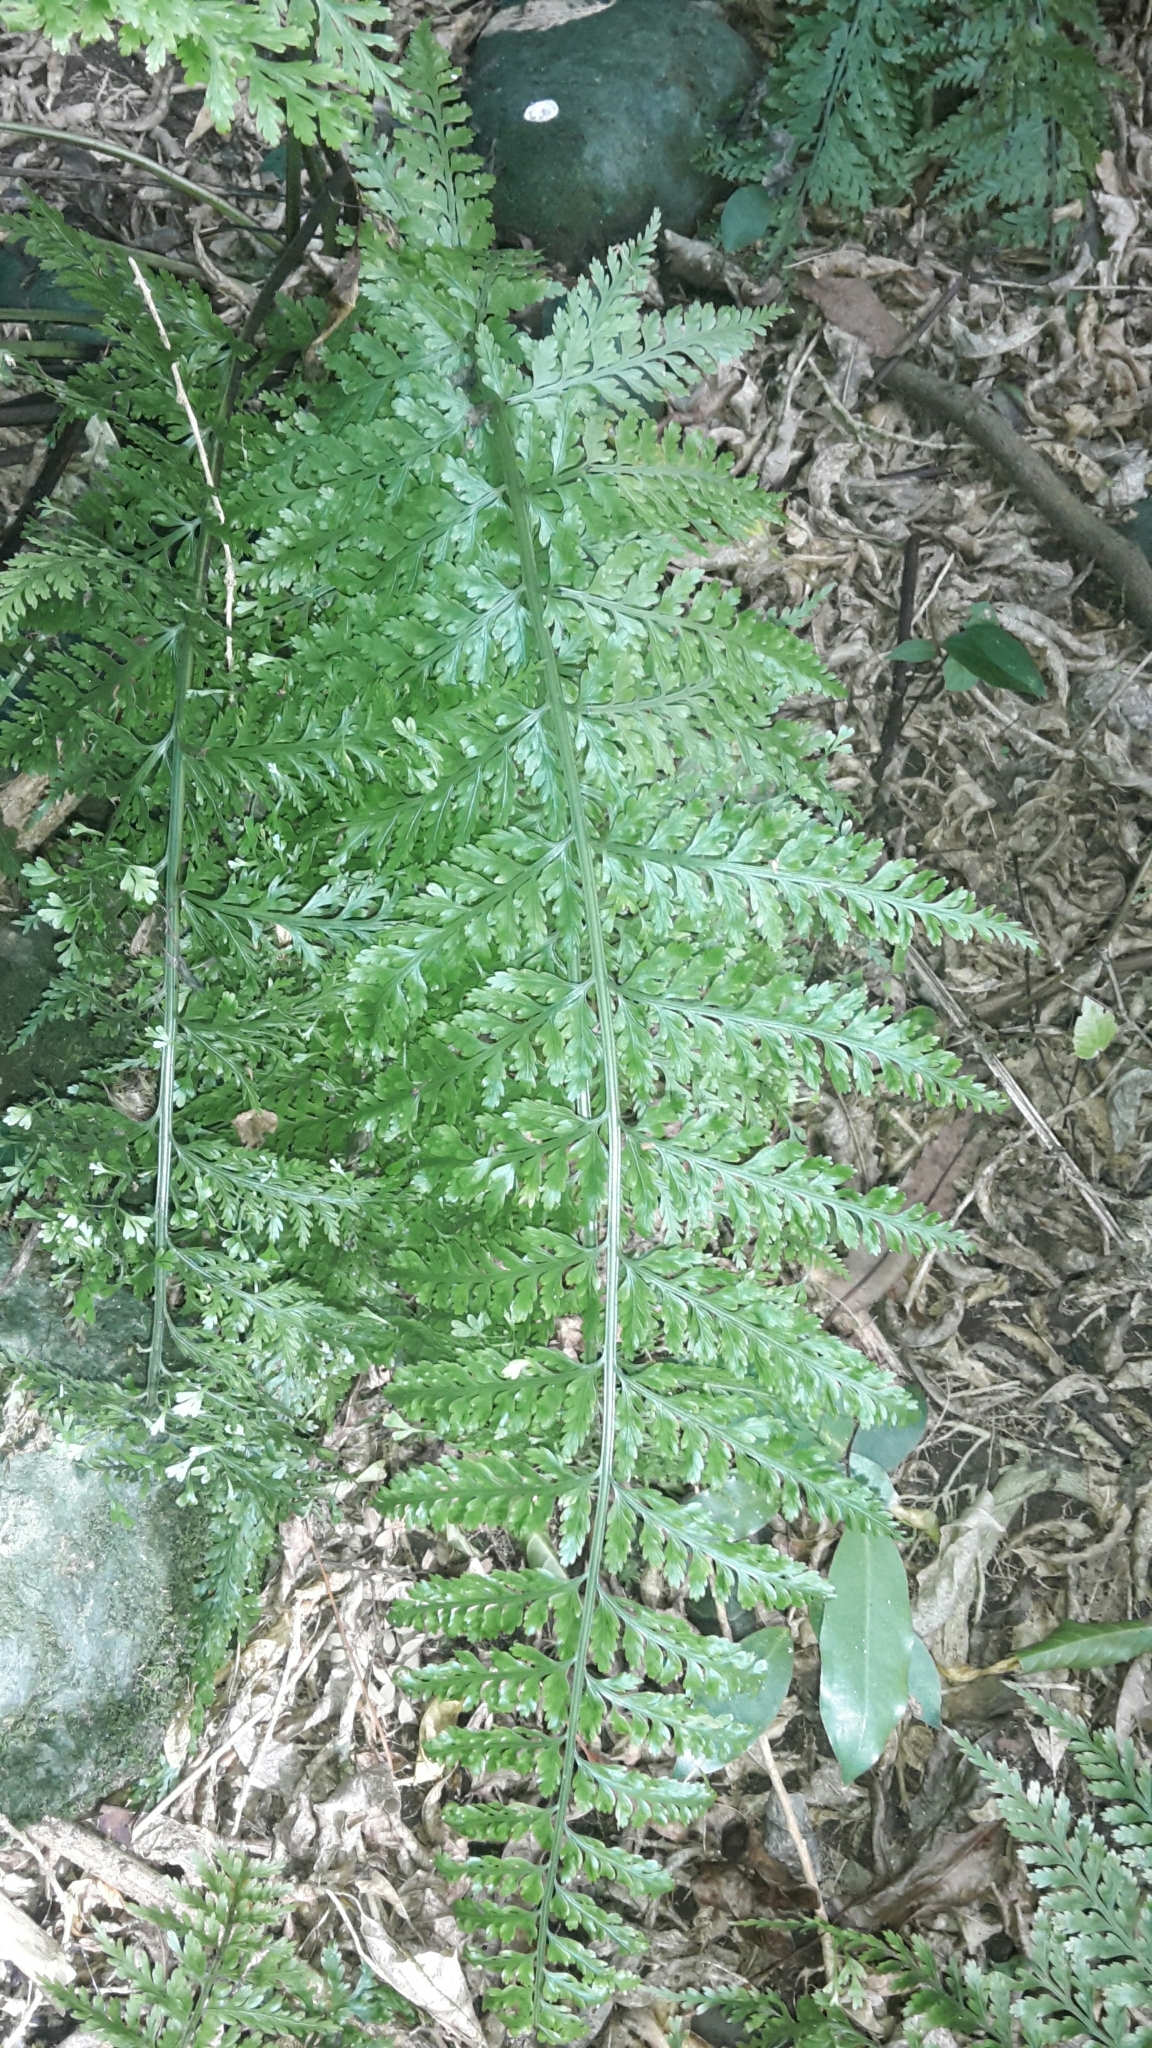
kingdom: Plantae
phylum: Tracheophyta
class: Polypodiopsida
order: Polypodiales
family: Aspleniaceae
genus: Asplenium
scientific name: Asplenium bulbiferum
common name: Mother fern
